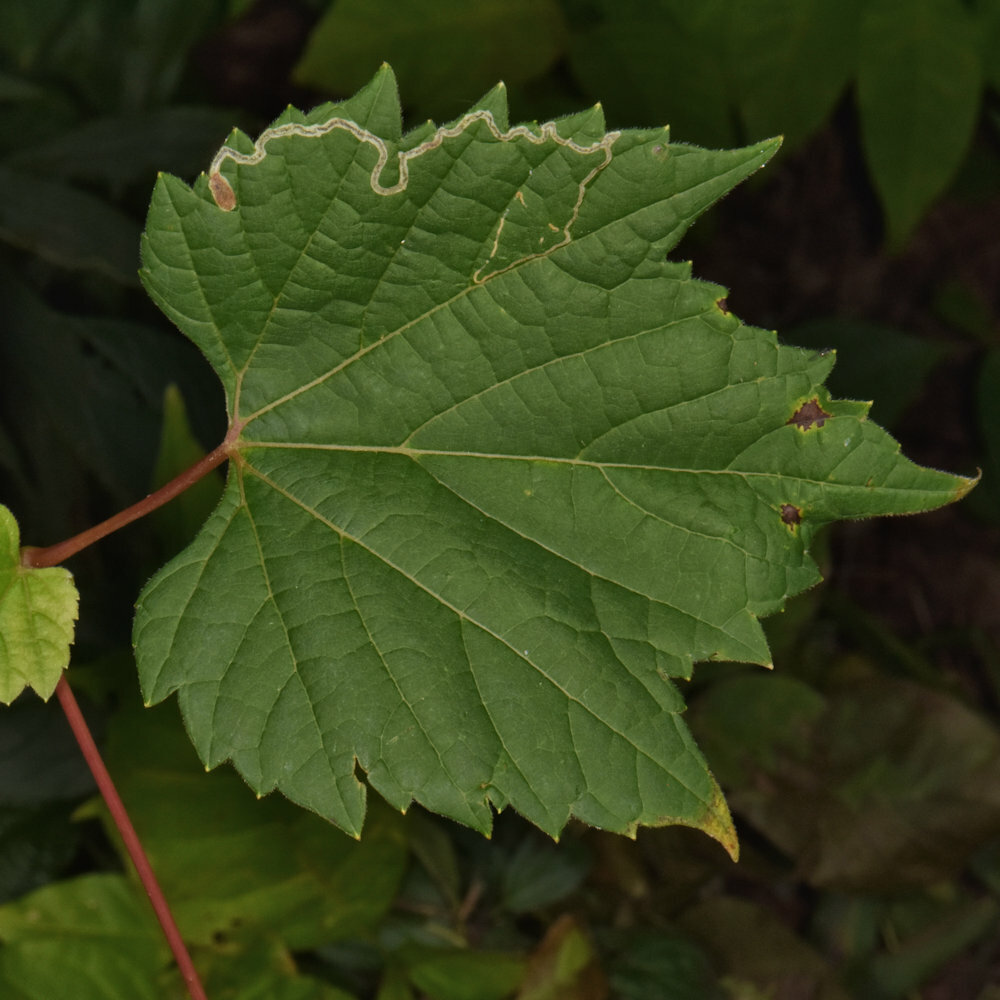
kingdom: Animalia
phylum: Arthropoda
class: Insecta
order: Lepidoptera
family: Gracillariidae
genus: Phyllocnistis
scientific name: Phyllocnistis vitifoliella
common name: Grape leaf-miner moth
